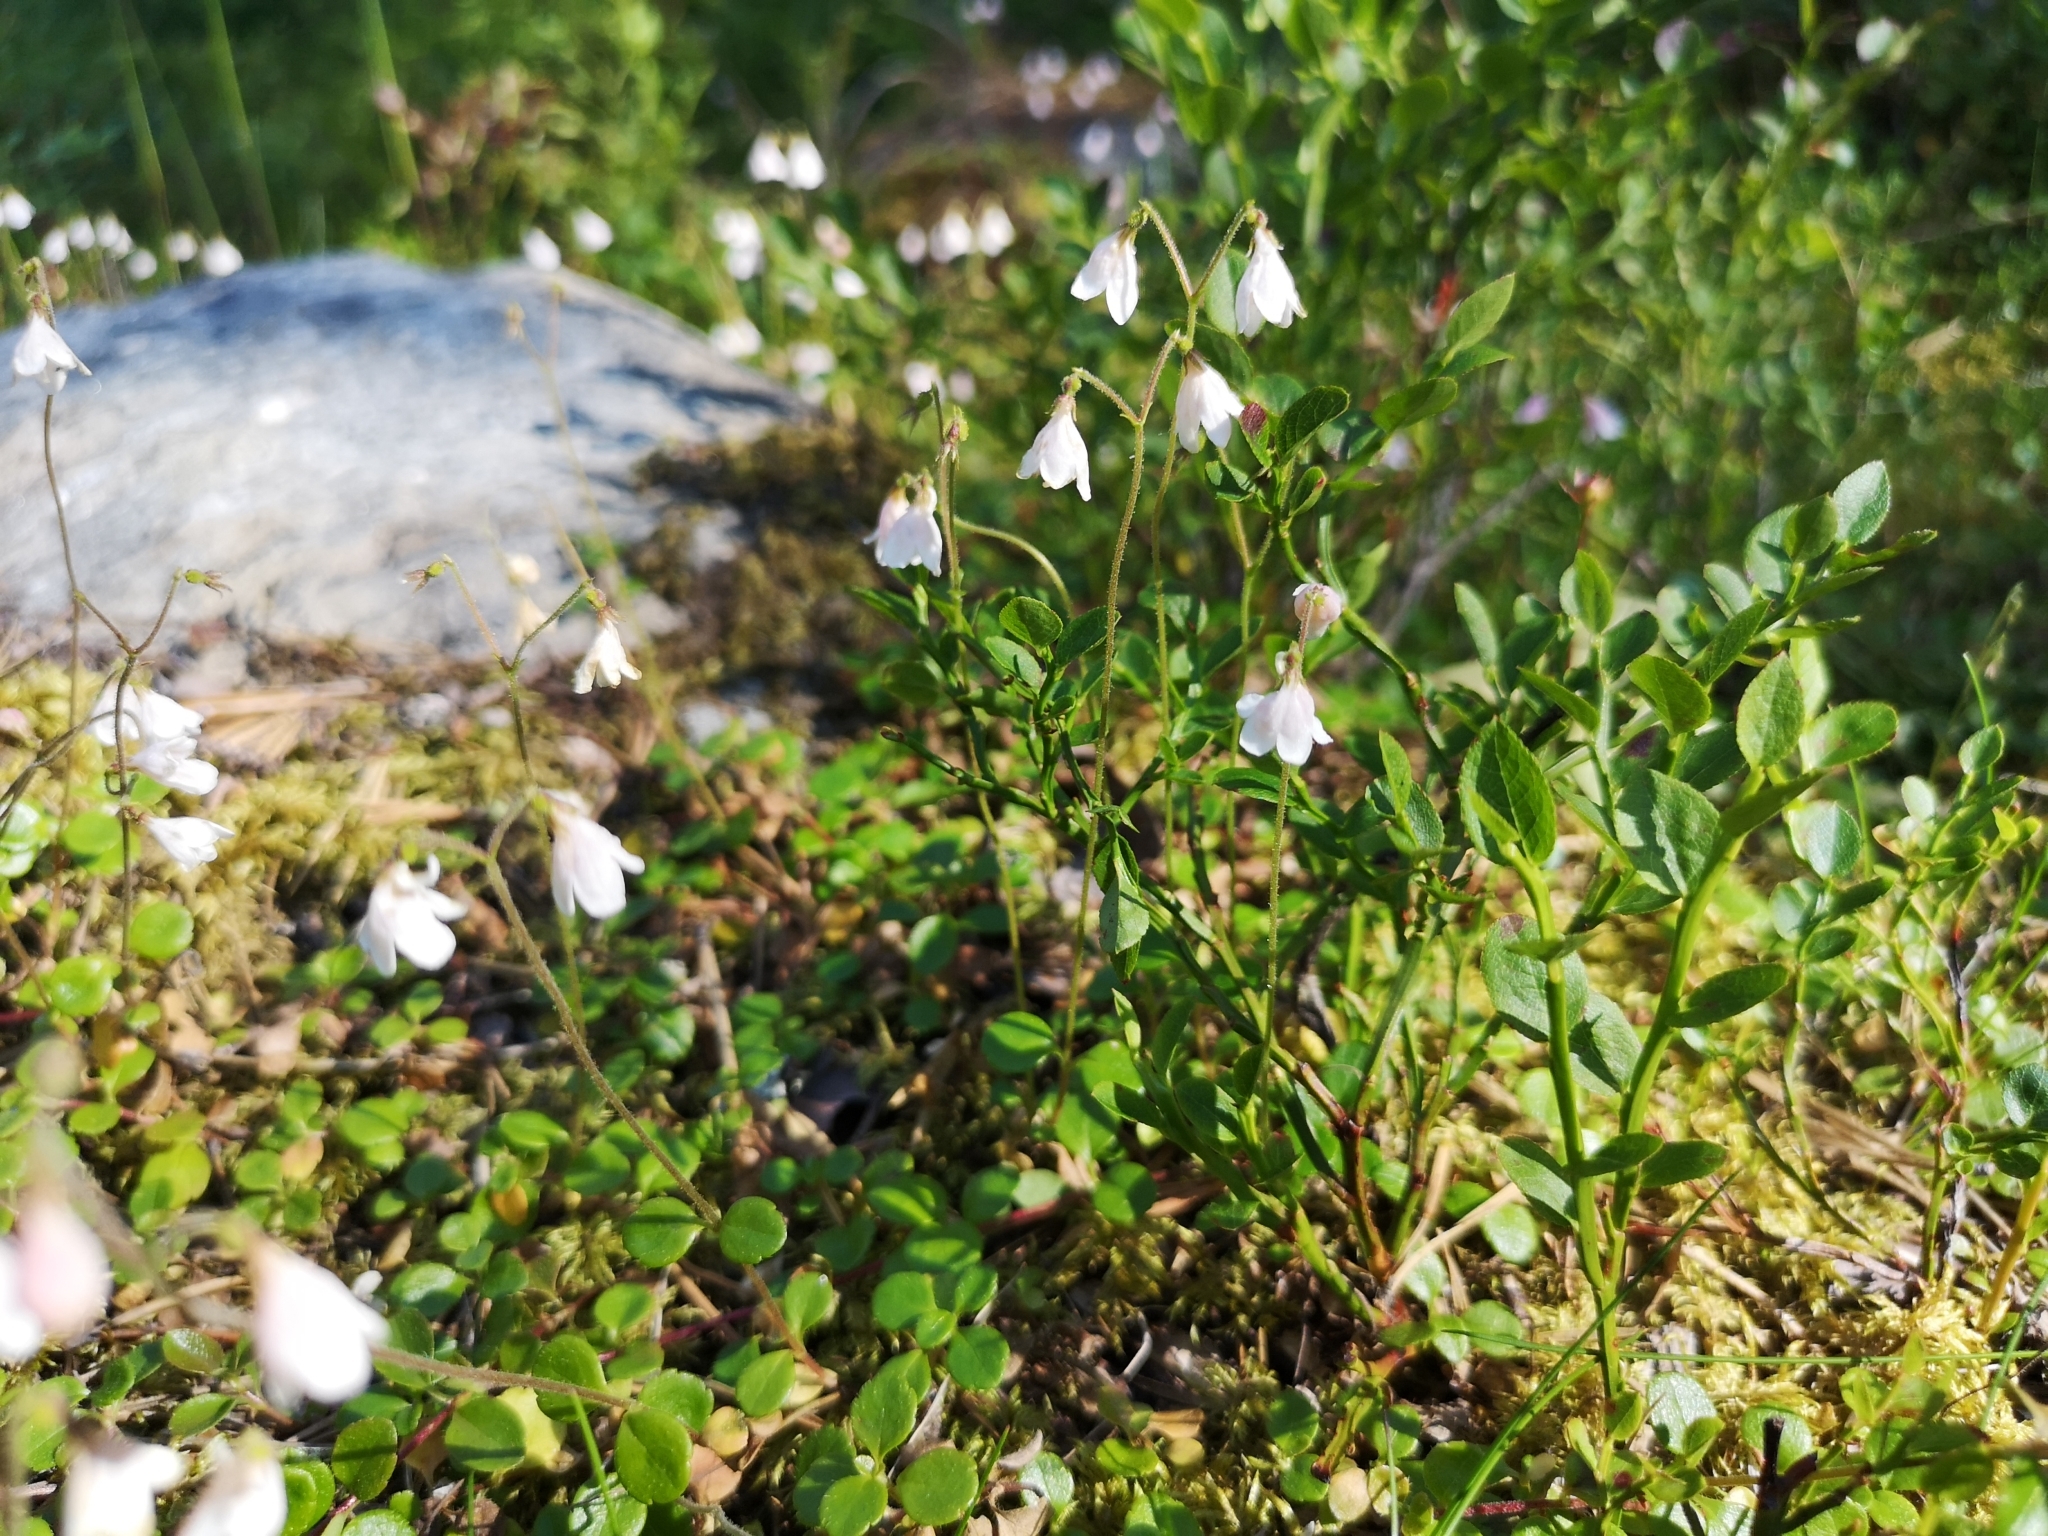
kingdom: Plantae
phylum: Tracheophyta
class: Magnoliopsida
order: Dipsacales
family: Caprifoliaceae
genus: Linnaea
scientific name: Linnaea borealis
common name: Twinflower
